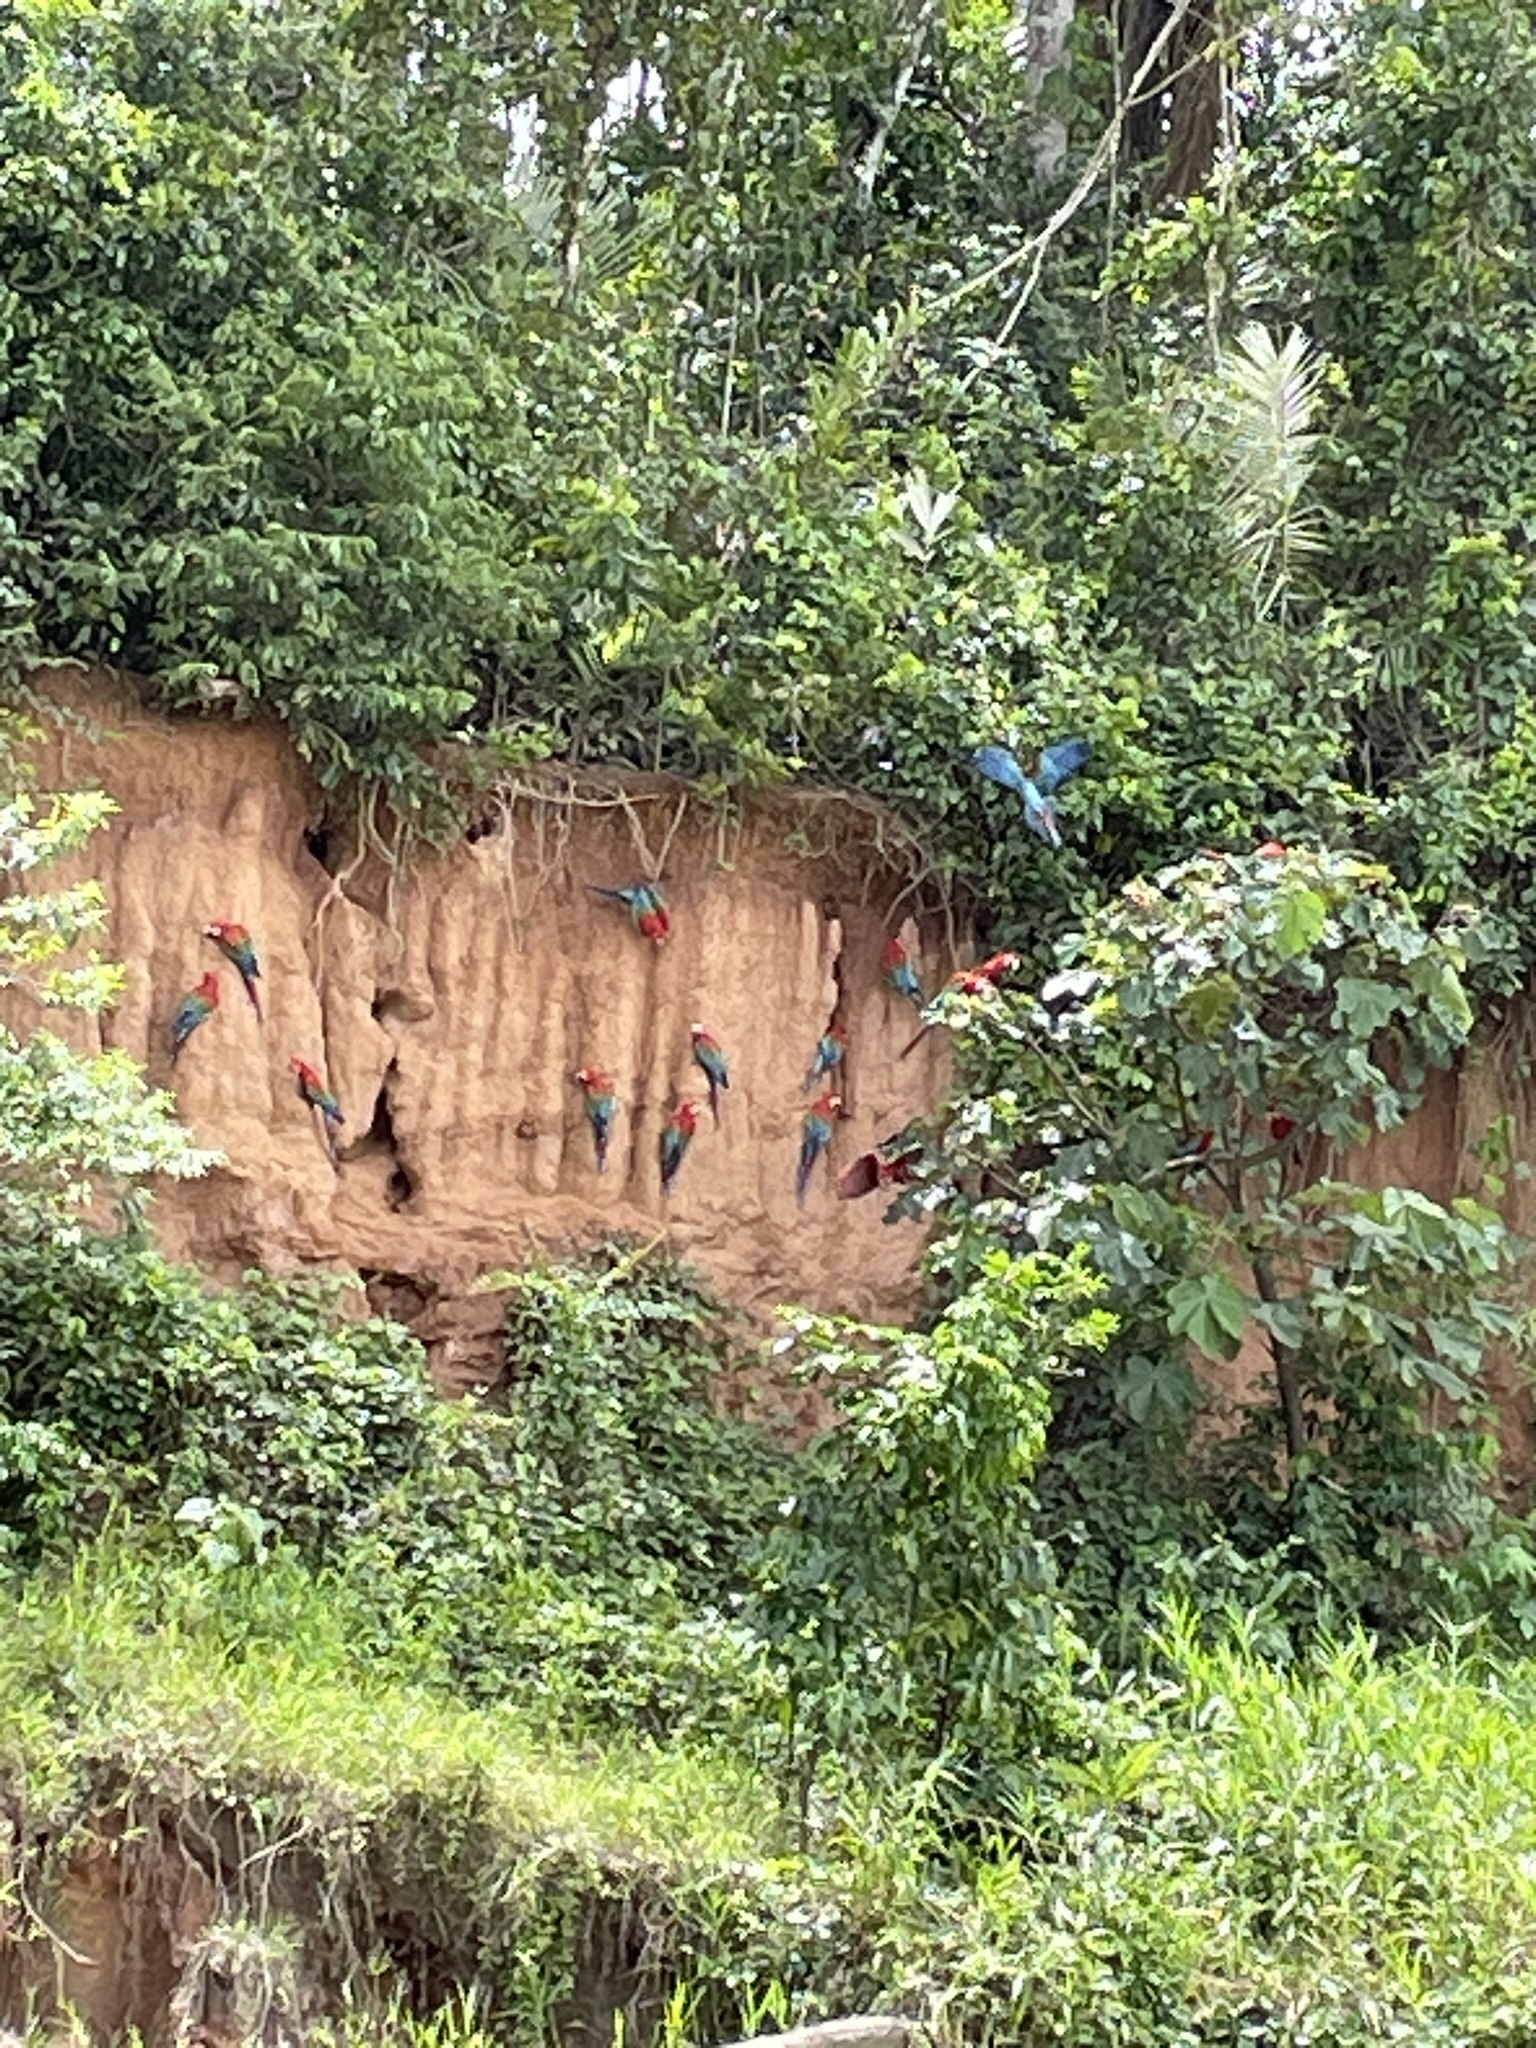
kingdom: Animalia
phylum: Chordata
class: Aves
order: Psittaciformes
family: Psittacidae
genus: Ara
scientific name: Ara chloropterus
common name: Red-and-green macaw
